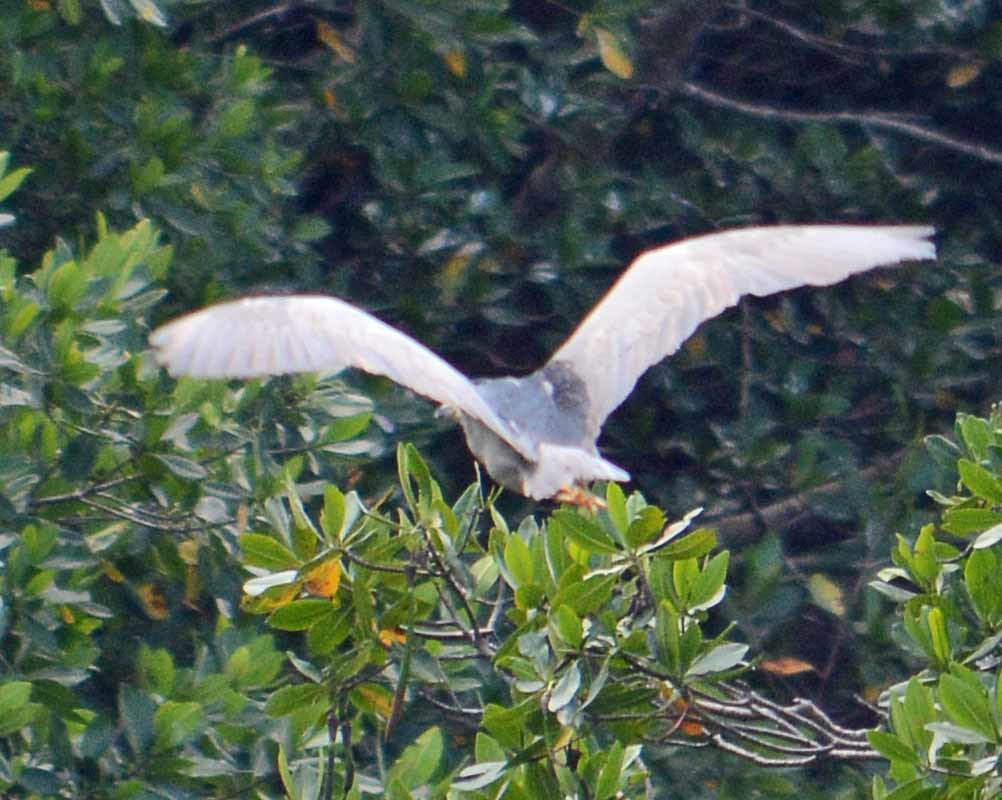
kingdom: Animalia
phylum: Chordata
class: Aves
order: Pelecaniformes
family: Ardeidae
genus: Nycticorax
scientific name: Nycticorax nycticorax
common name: Black-crowned night heron
